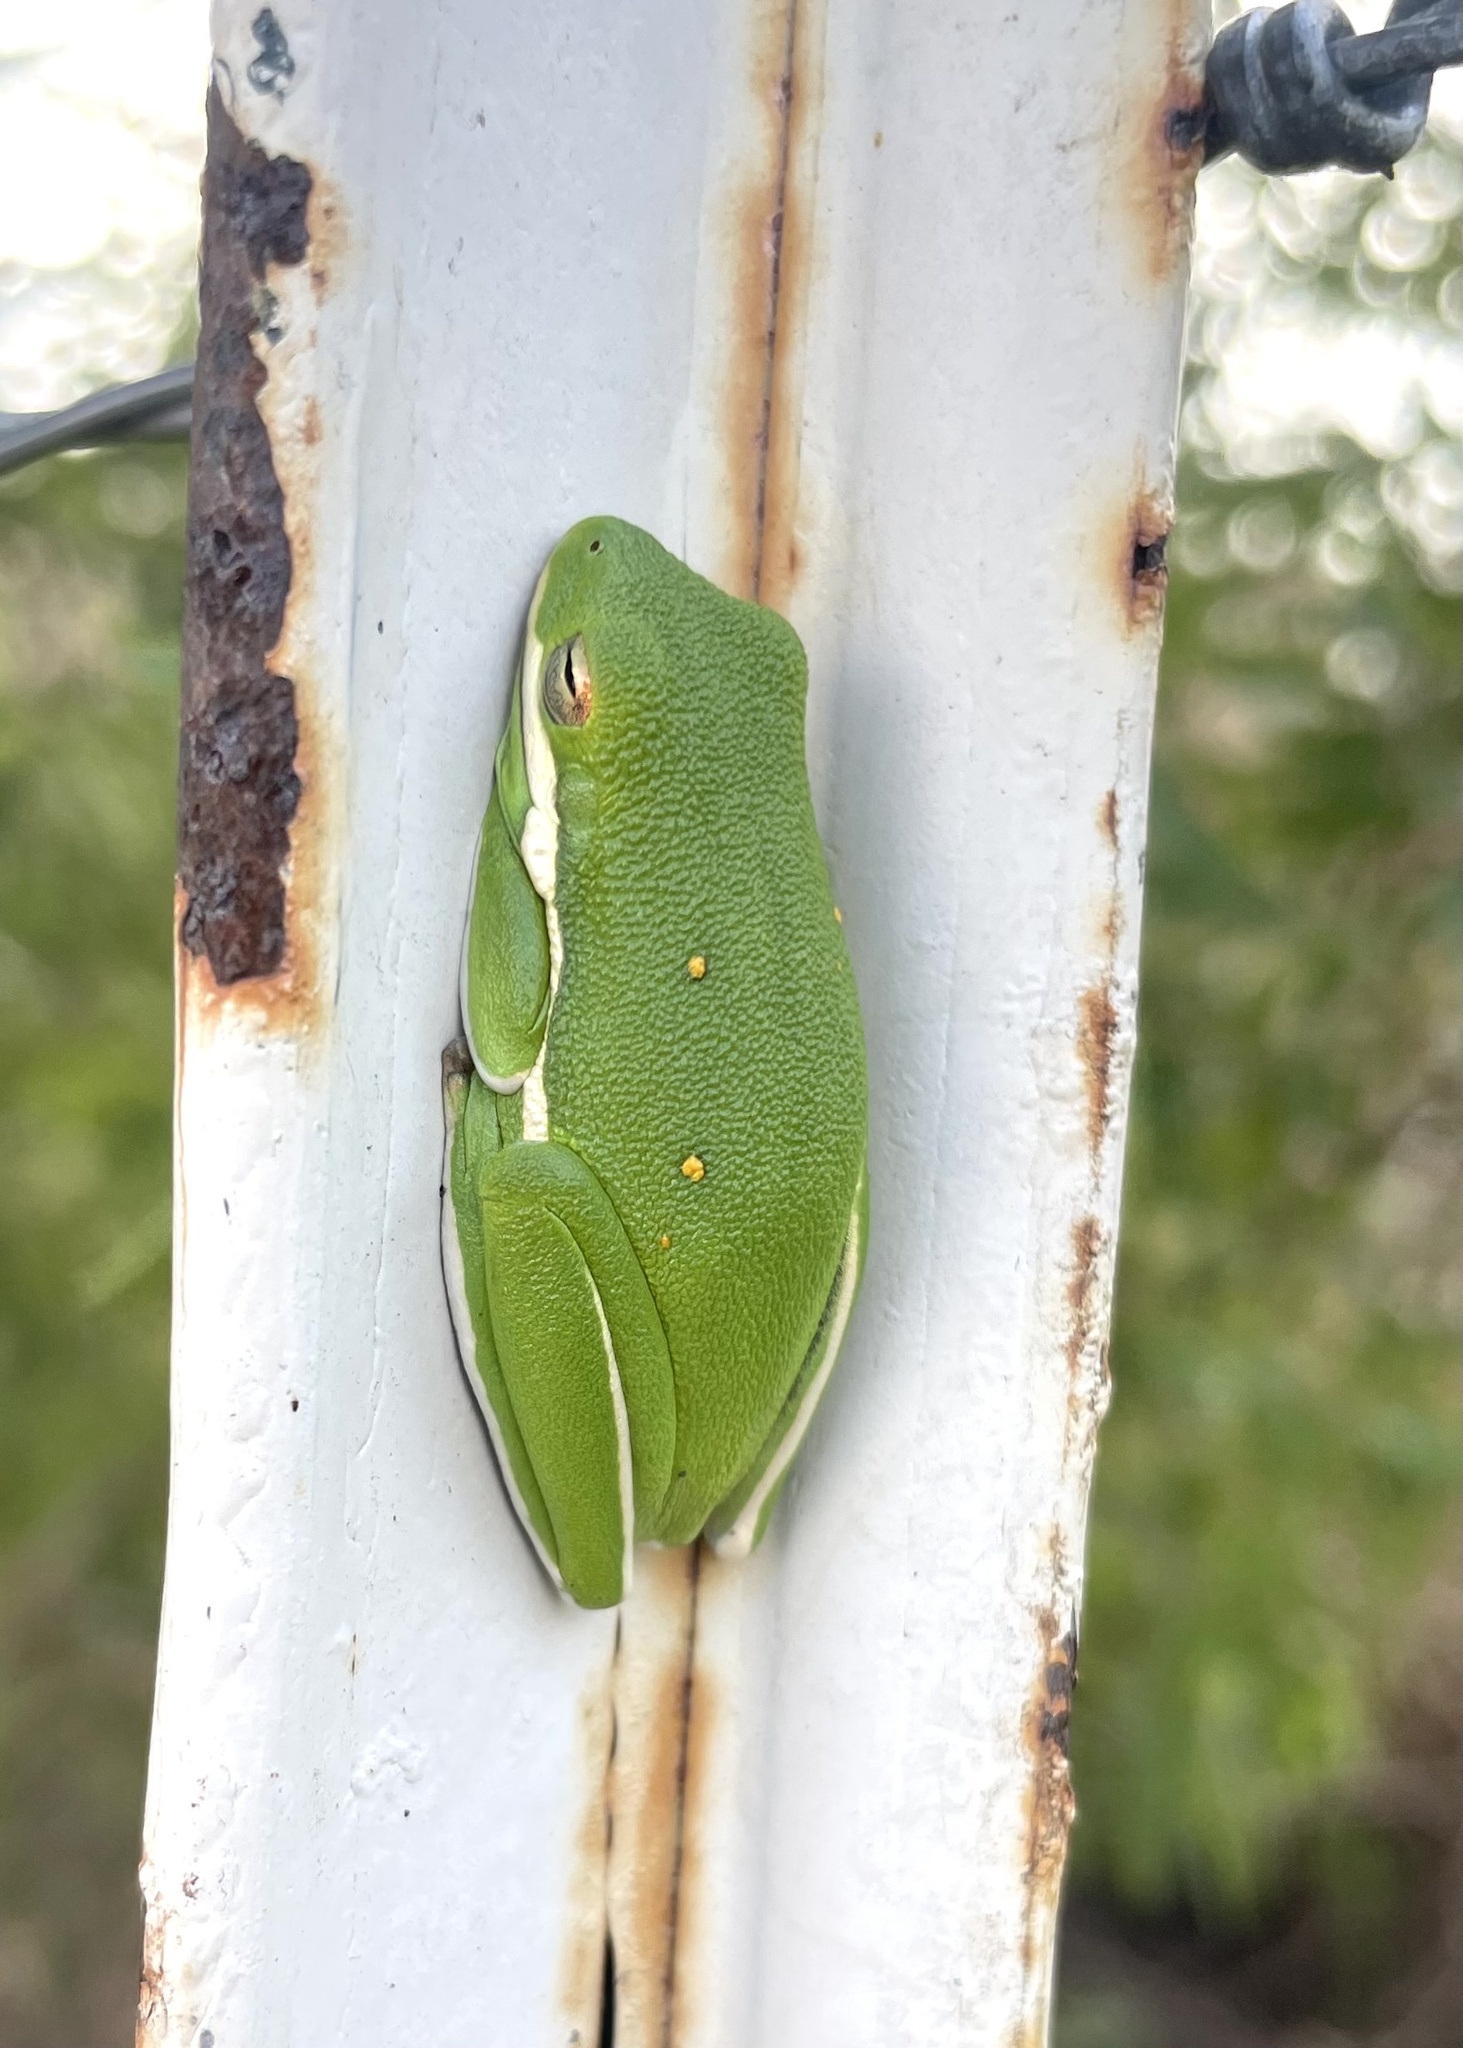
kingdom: Animalia
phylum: Chordata
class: Amphibia
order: Anura
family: Hylidae
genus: Dryophytes
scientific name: Dryophytes cinereus
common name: Green treefrog
